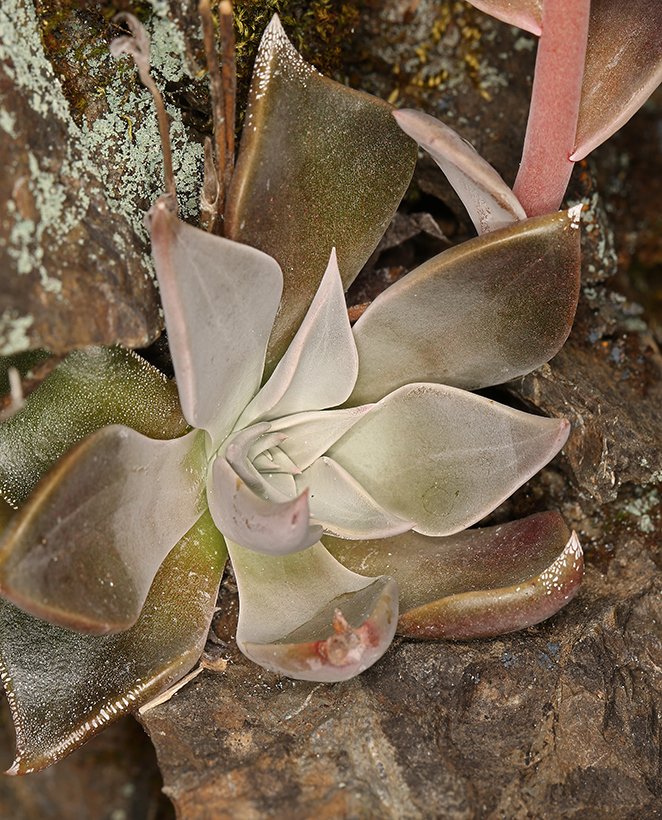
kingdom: Plantae
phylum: Tracheophyta
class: Magnoliopsida
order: Saxifragales
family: Crassulaceae
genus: Dudleya
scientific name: Dudleya cymosa
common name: Canyon dudleya
